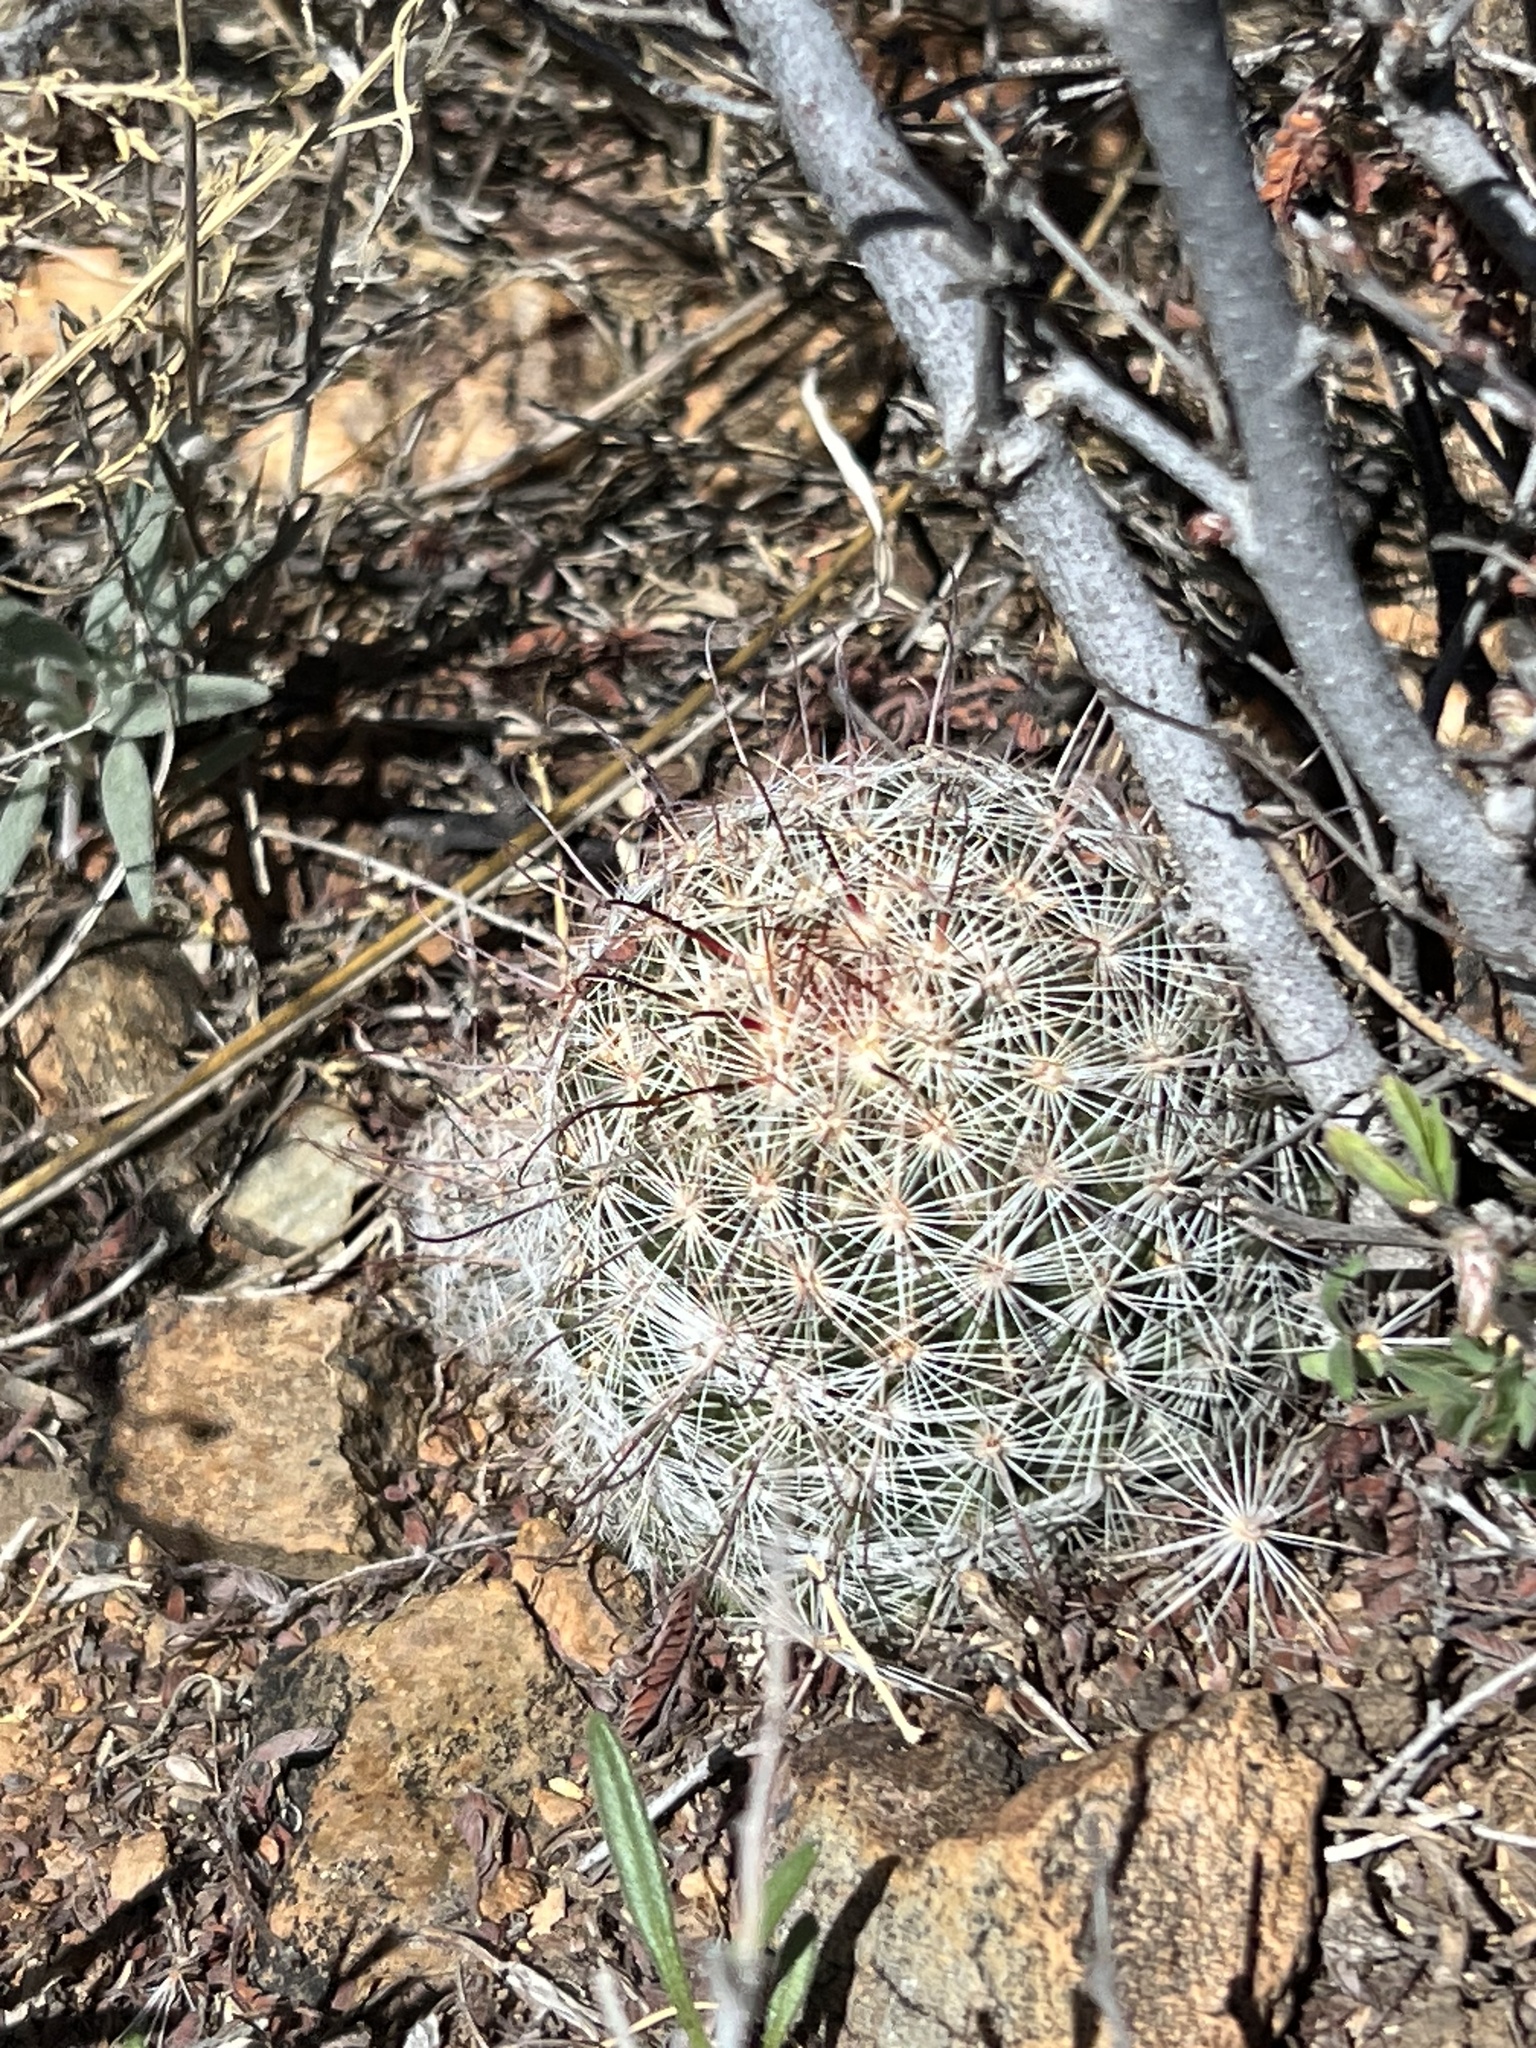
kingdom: Plantae
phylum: Tracheophyta
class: Magnoliopsida
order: Caryophyllales
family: Cactaceae
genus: Cochemiea
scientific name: Cochemiea grahamii
